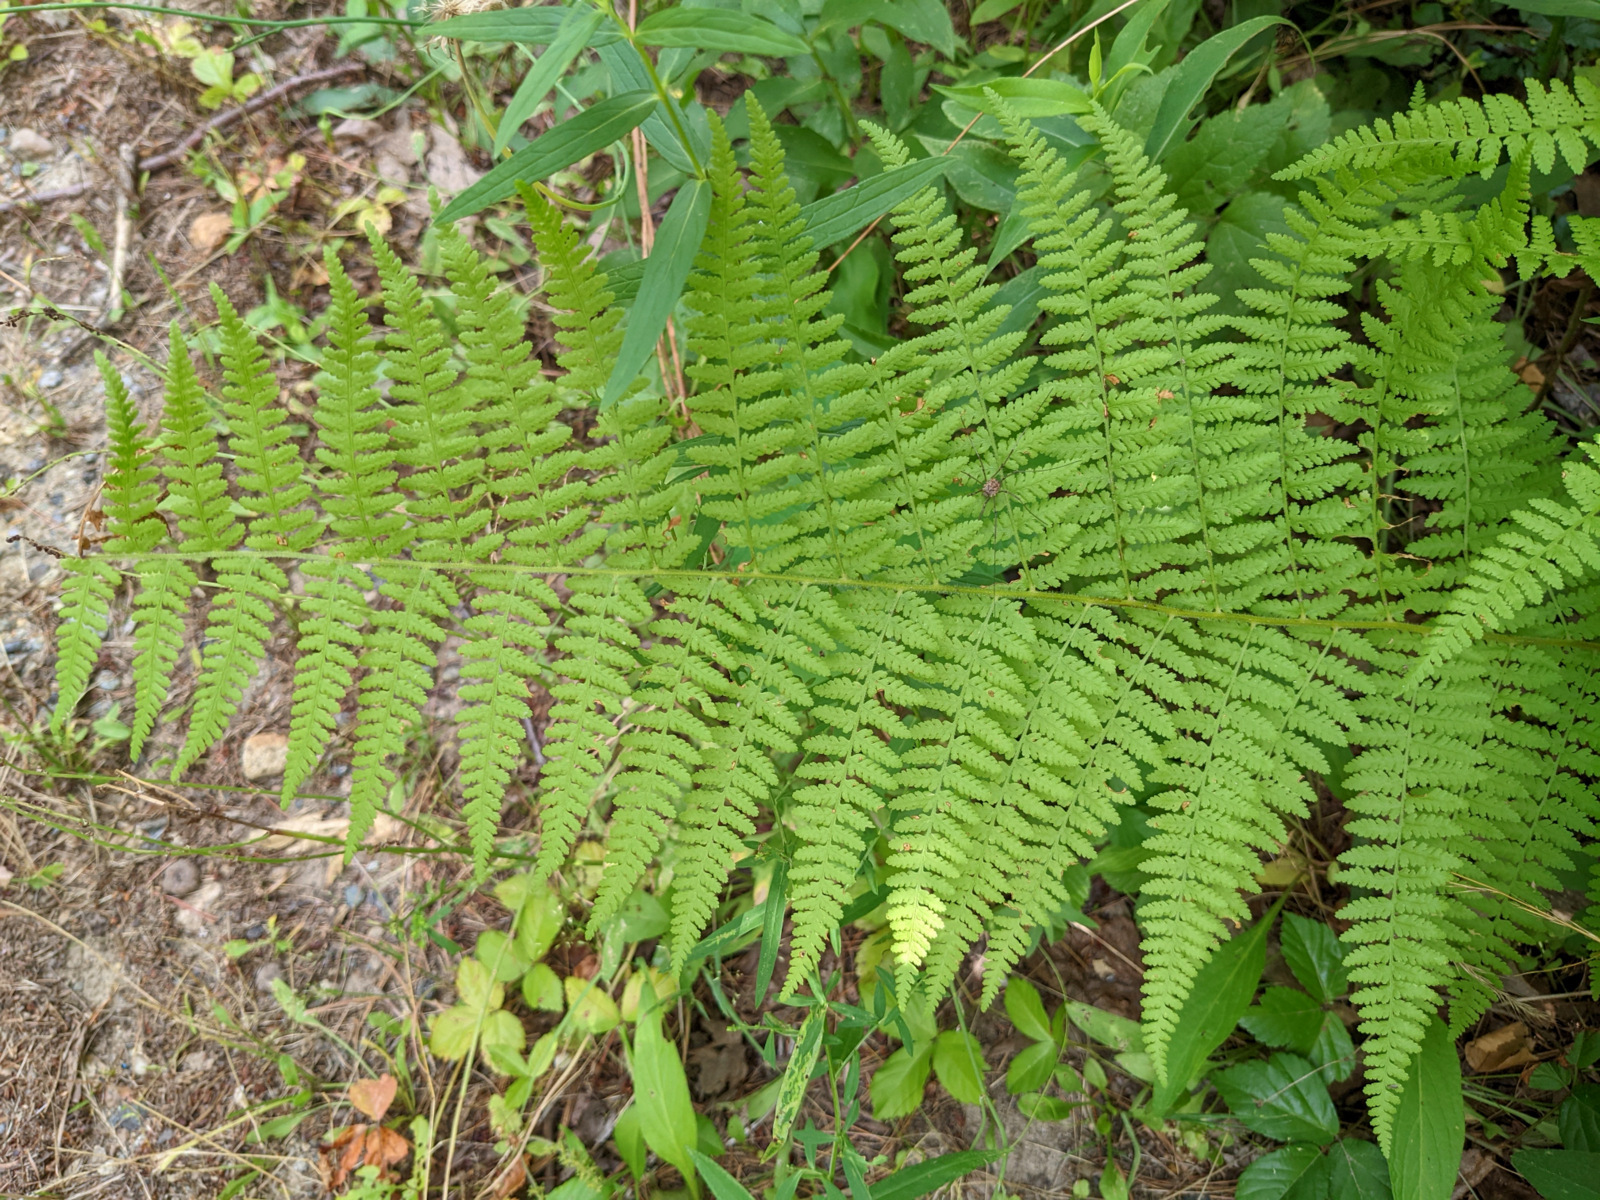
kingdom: Plantae
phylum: Tracheophyta
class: Polypodiopsida
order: Polypodiales
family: Dennstaedtiaceae
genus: Sitobolium
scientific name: Sitobolium punctilobum
